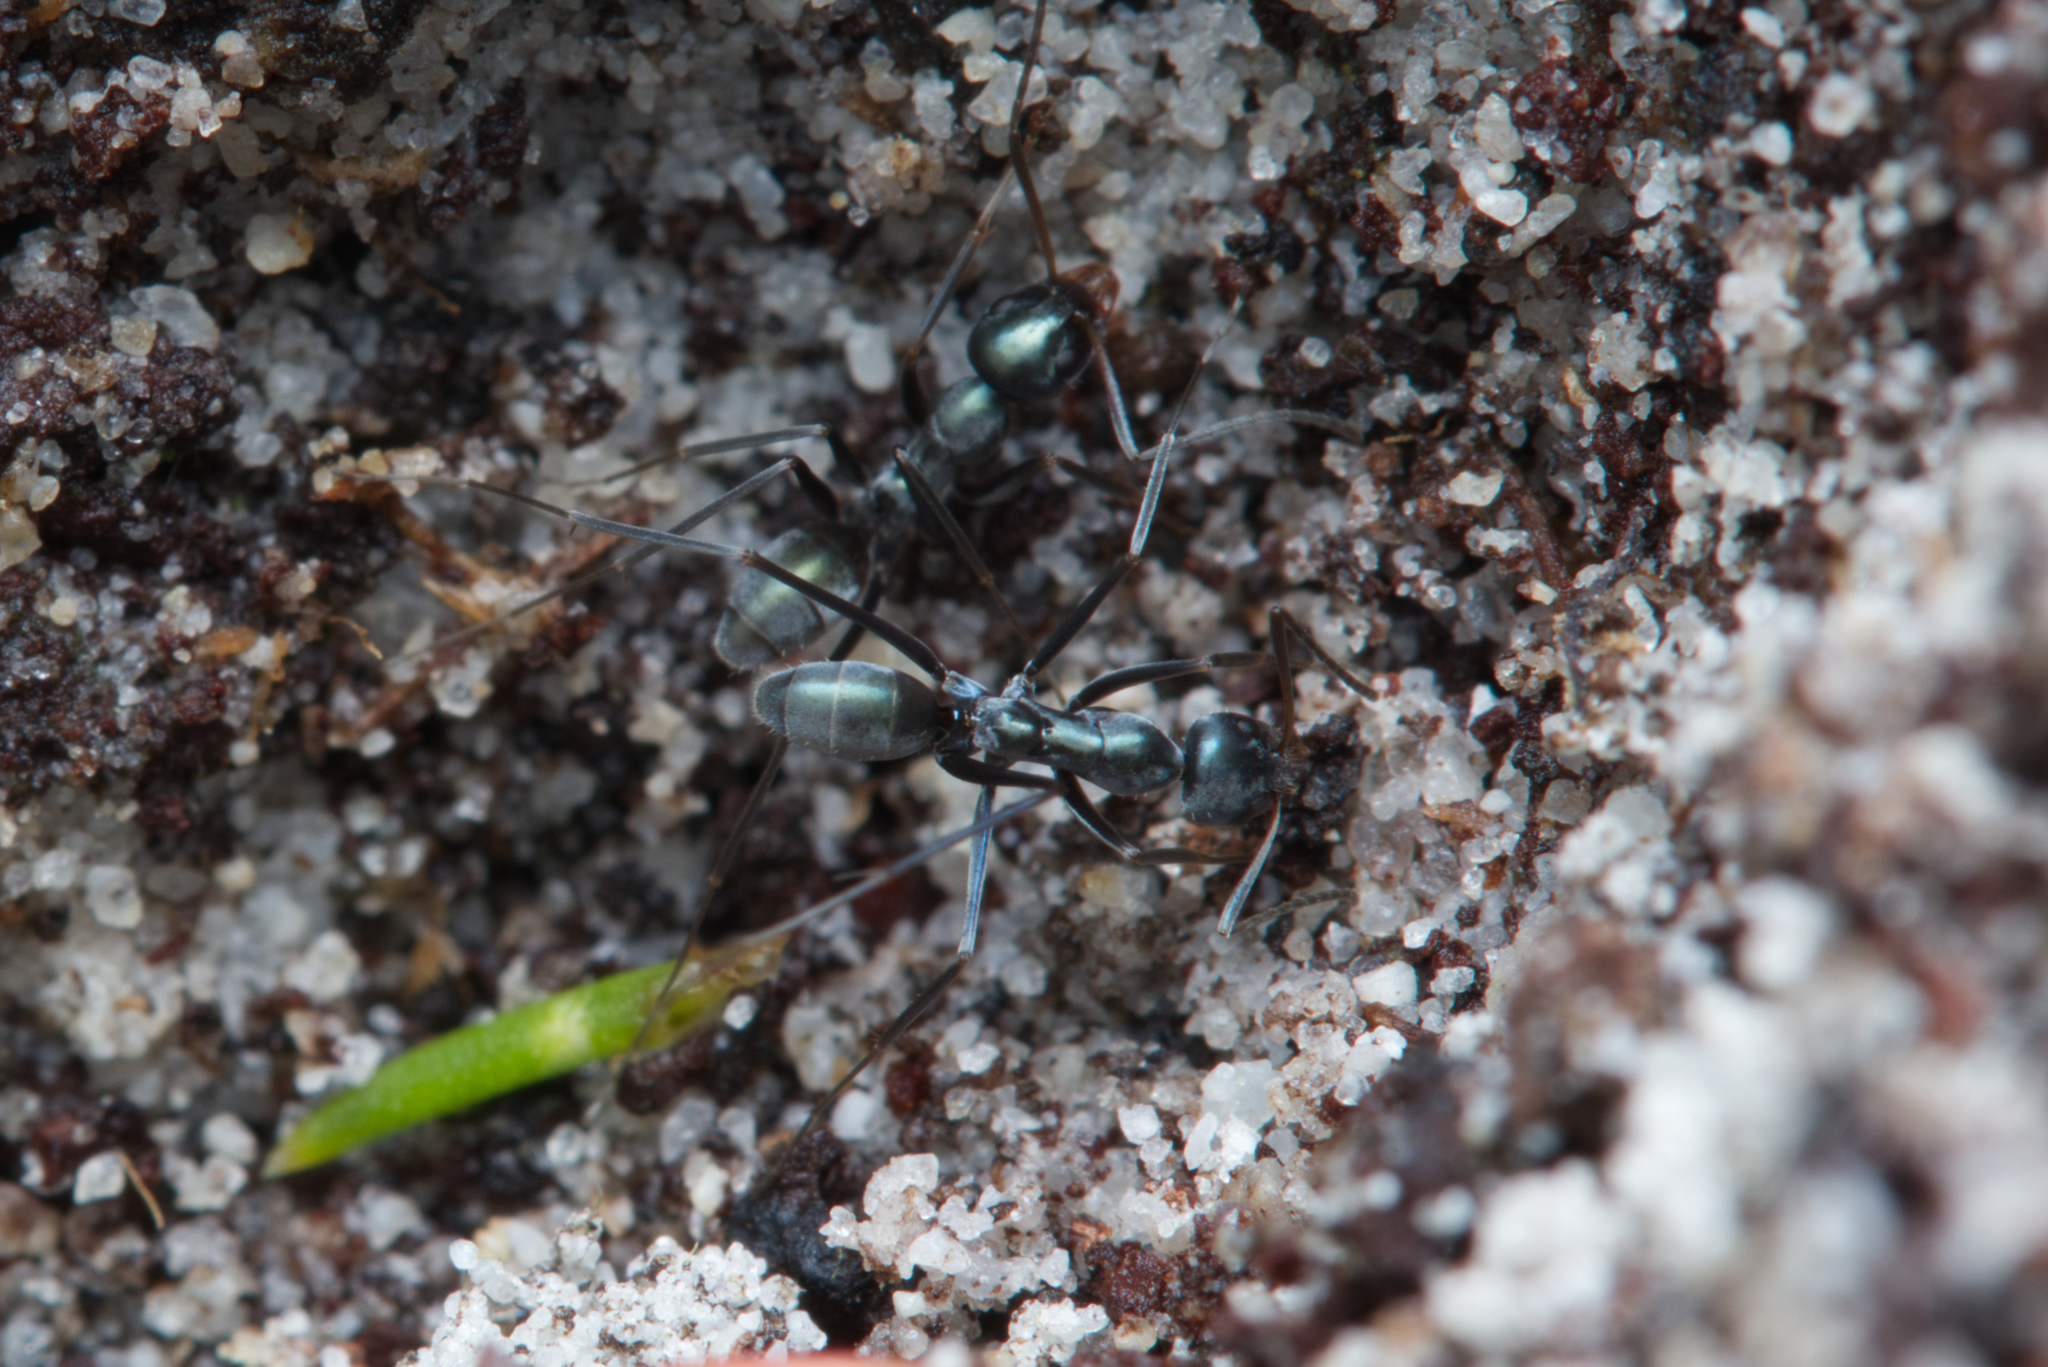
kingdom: Animalia
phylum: Arthropoda
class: Insecta
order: Hymenoptera
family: Formicidae
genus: Iridomyrmex
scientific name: Iridomyrmex bicknelli
